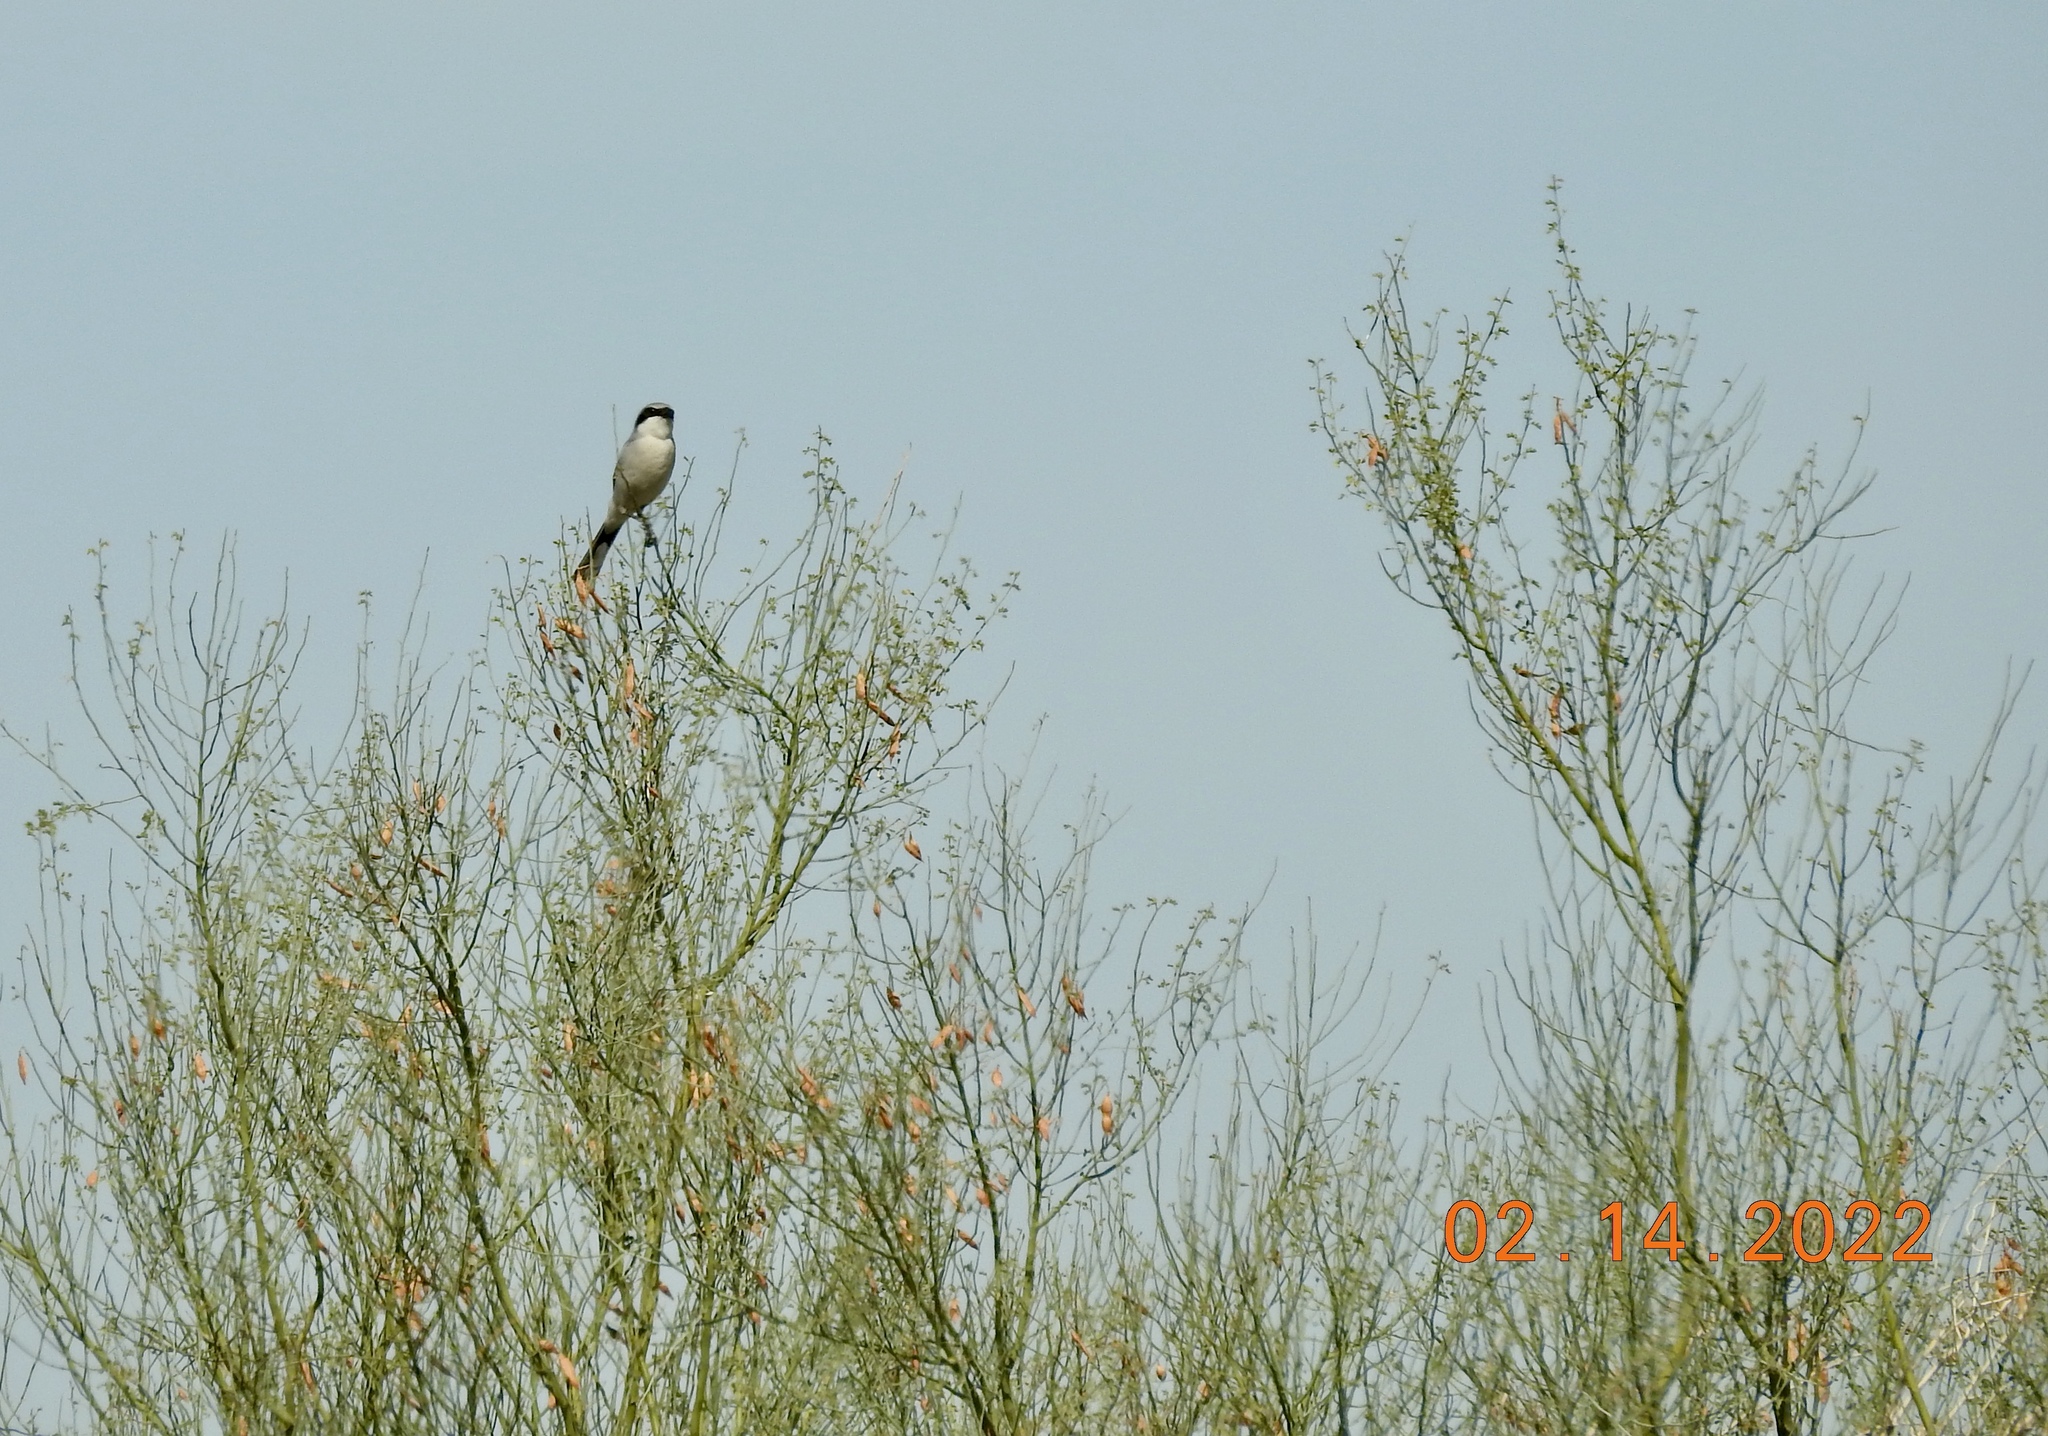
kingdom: Animalia
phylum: Chordata
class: Aves
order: Passeriformes
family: Laniidae
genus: Lanius
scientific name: Lanius ludovicianus
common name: Loggerhead shrike
